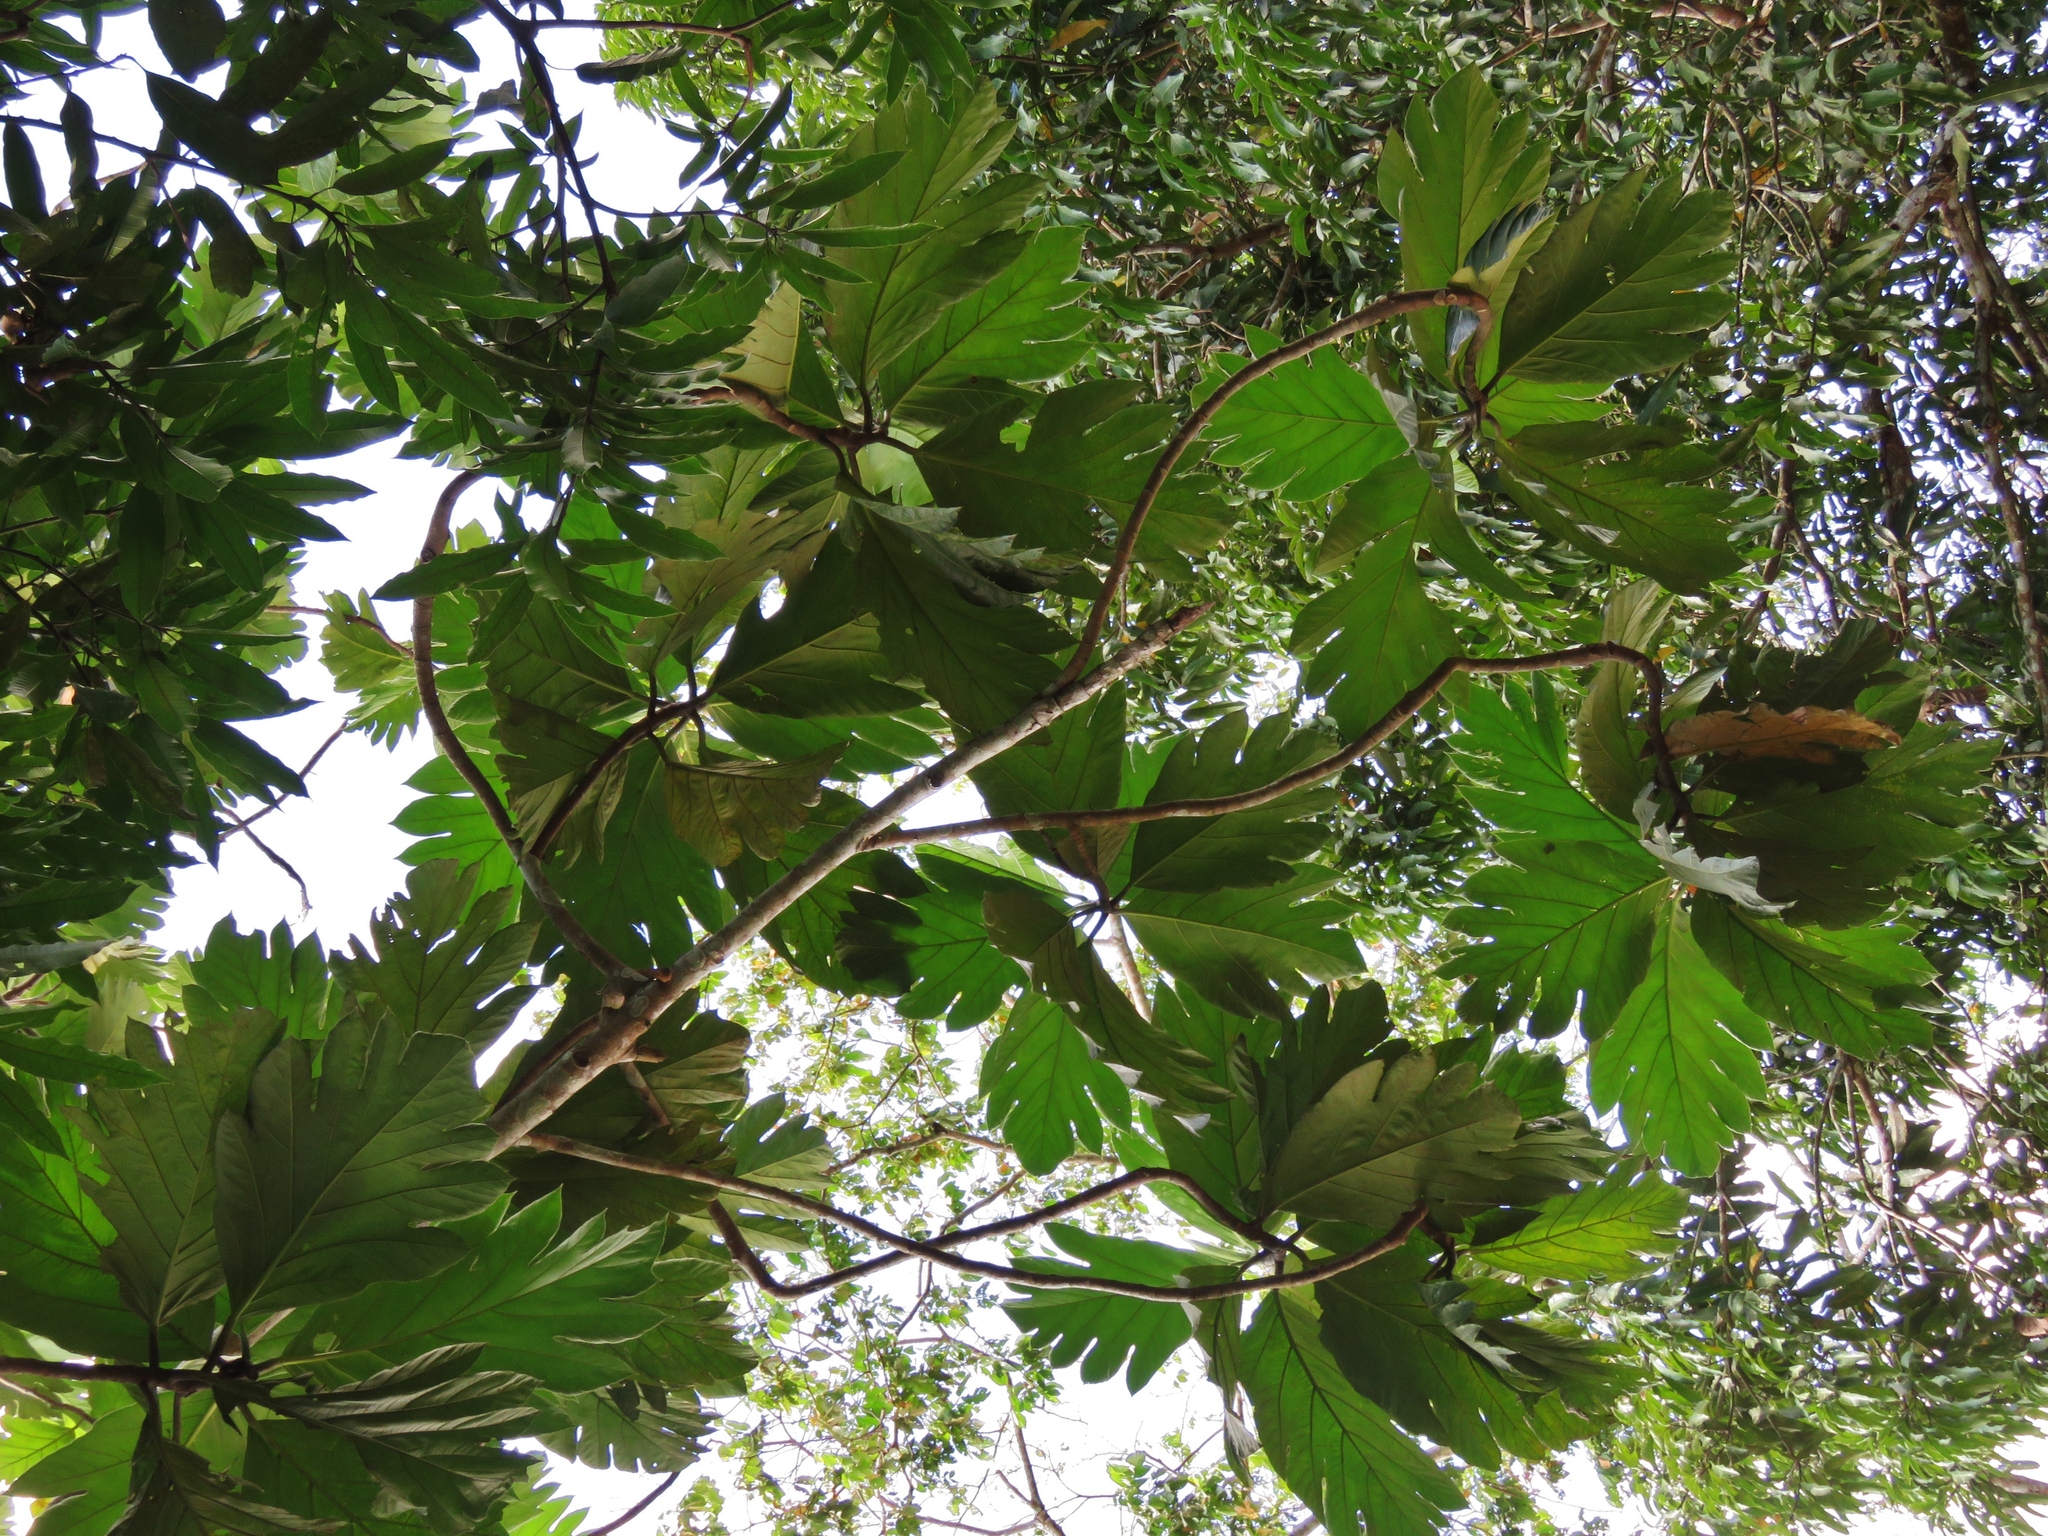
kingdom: Plantae
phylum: Tracheophyta
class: Magnoliopsida
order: Rosales
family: Moraceae
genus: Artocarpus
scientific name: Artocarpus altilis
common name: Breadfruit
